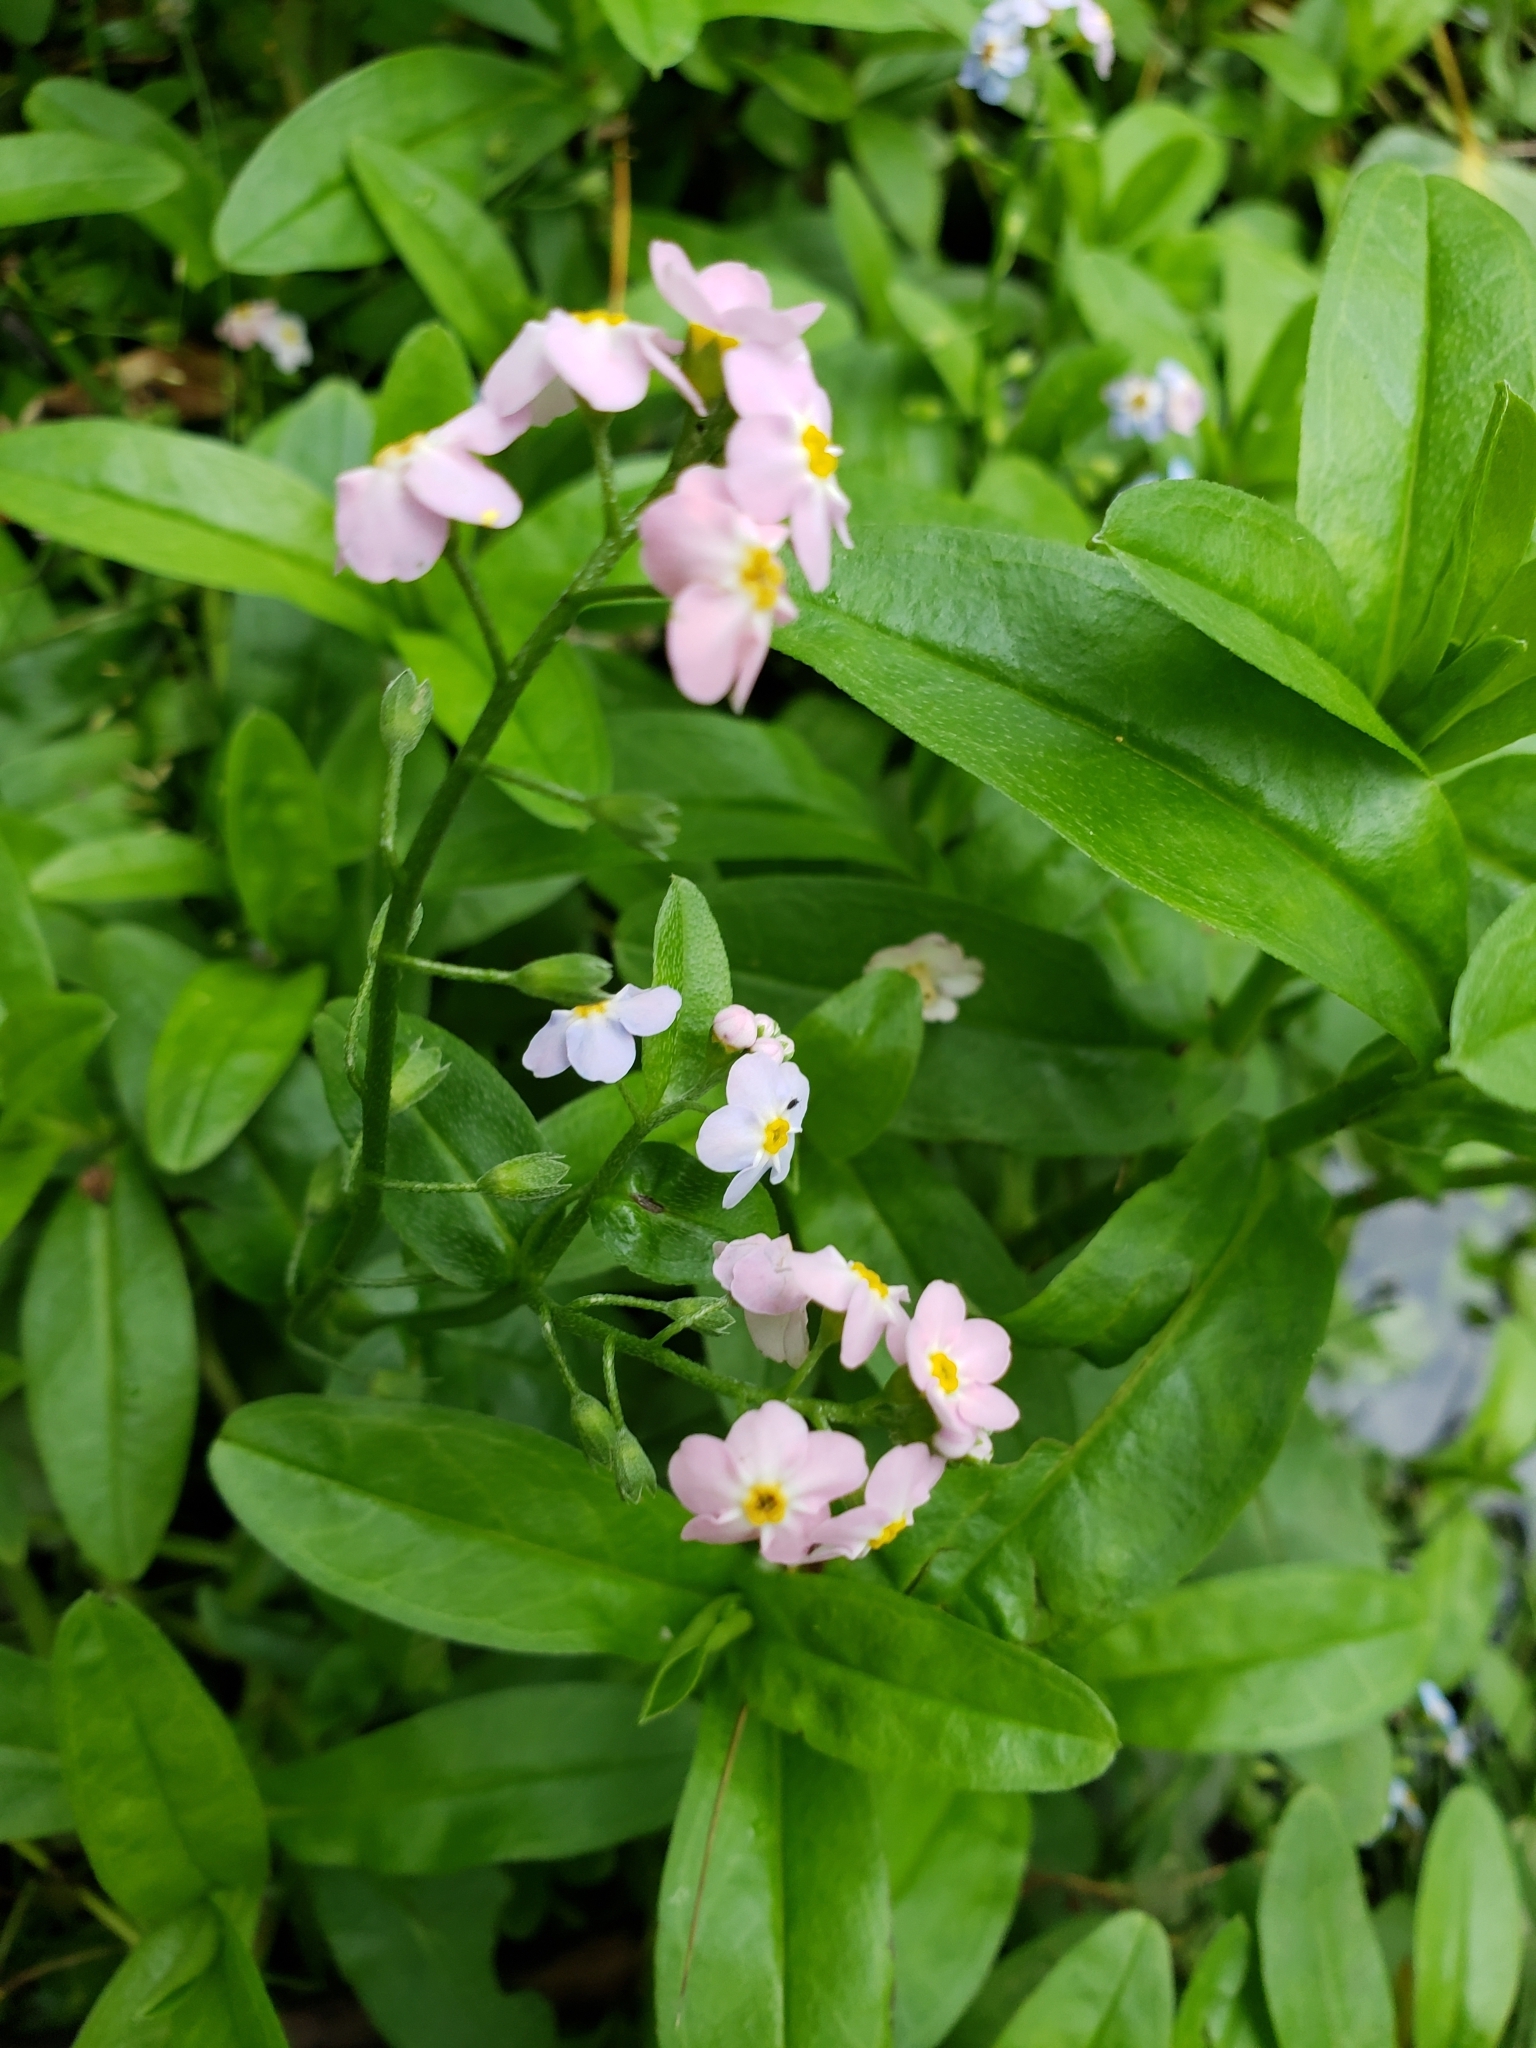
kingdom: Plantae
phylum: Tracheophyta
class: Magnoliopsida
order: Boraginales
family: Boraginaceae
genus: Myosotis
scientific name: Myosotis scorpioides
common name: Water forget-me-not
